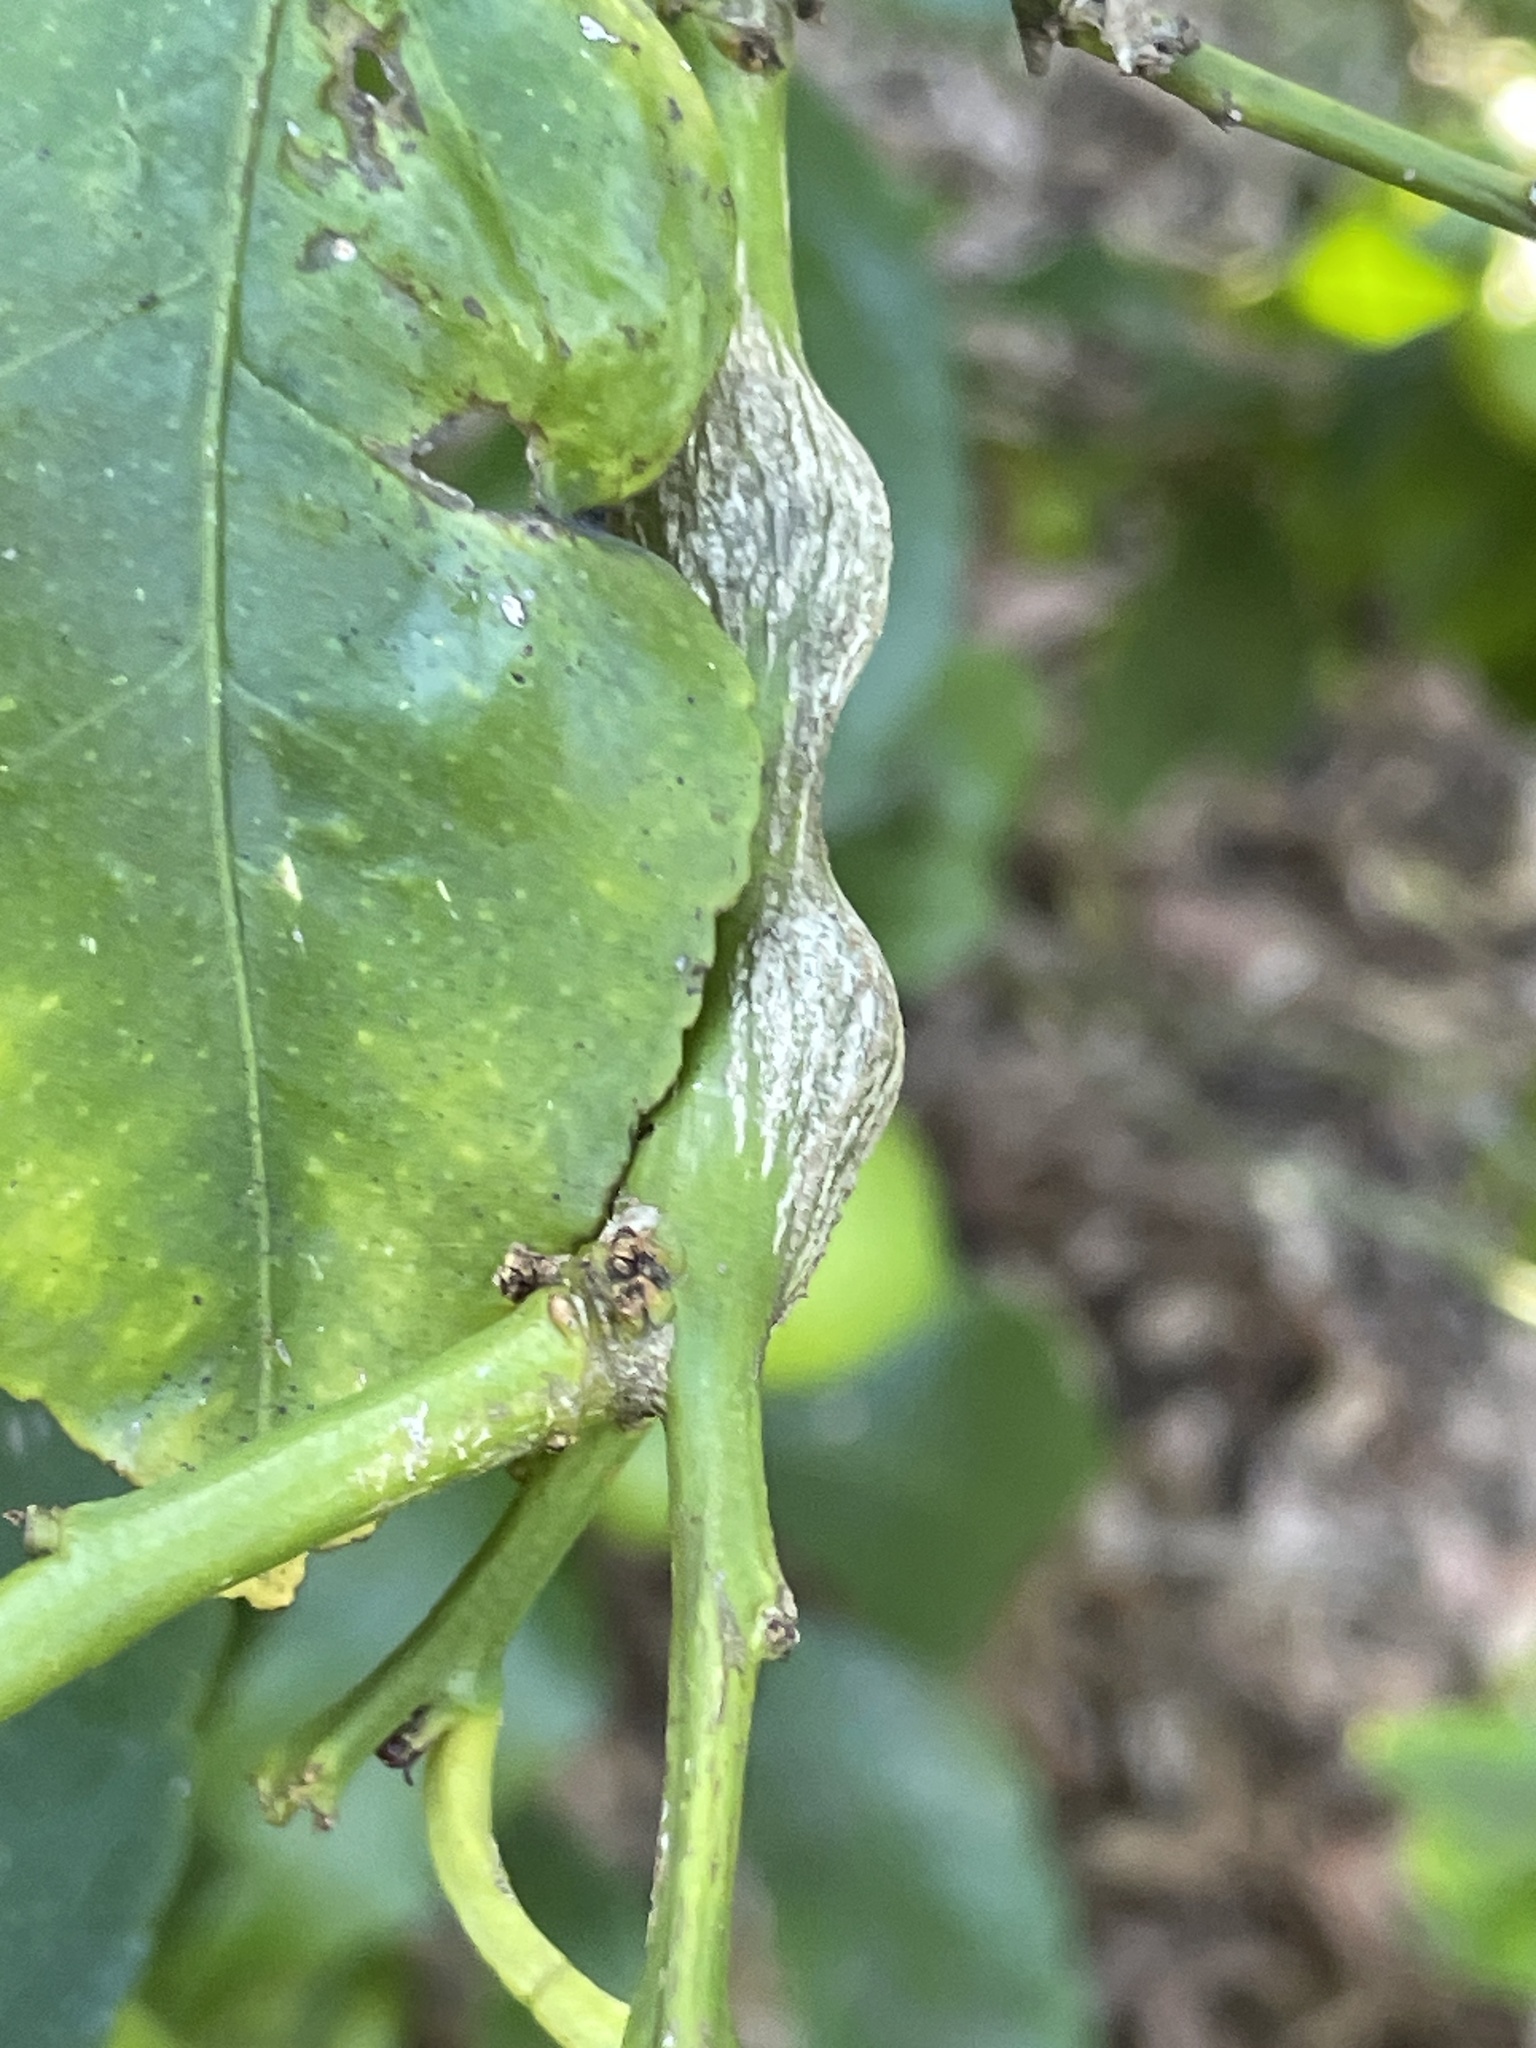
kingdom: Animalia
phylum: Arthropoda
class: Insecta
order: Hymenoptera
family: Eurytomidae
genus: Bruchophagus
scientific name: Bruchophagus fellis
